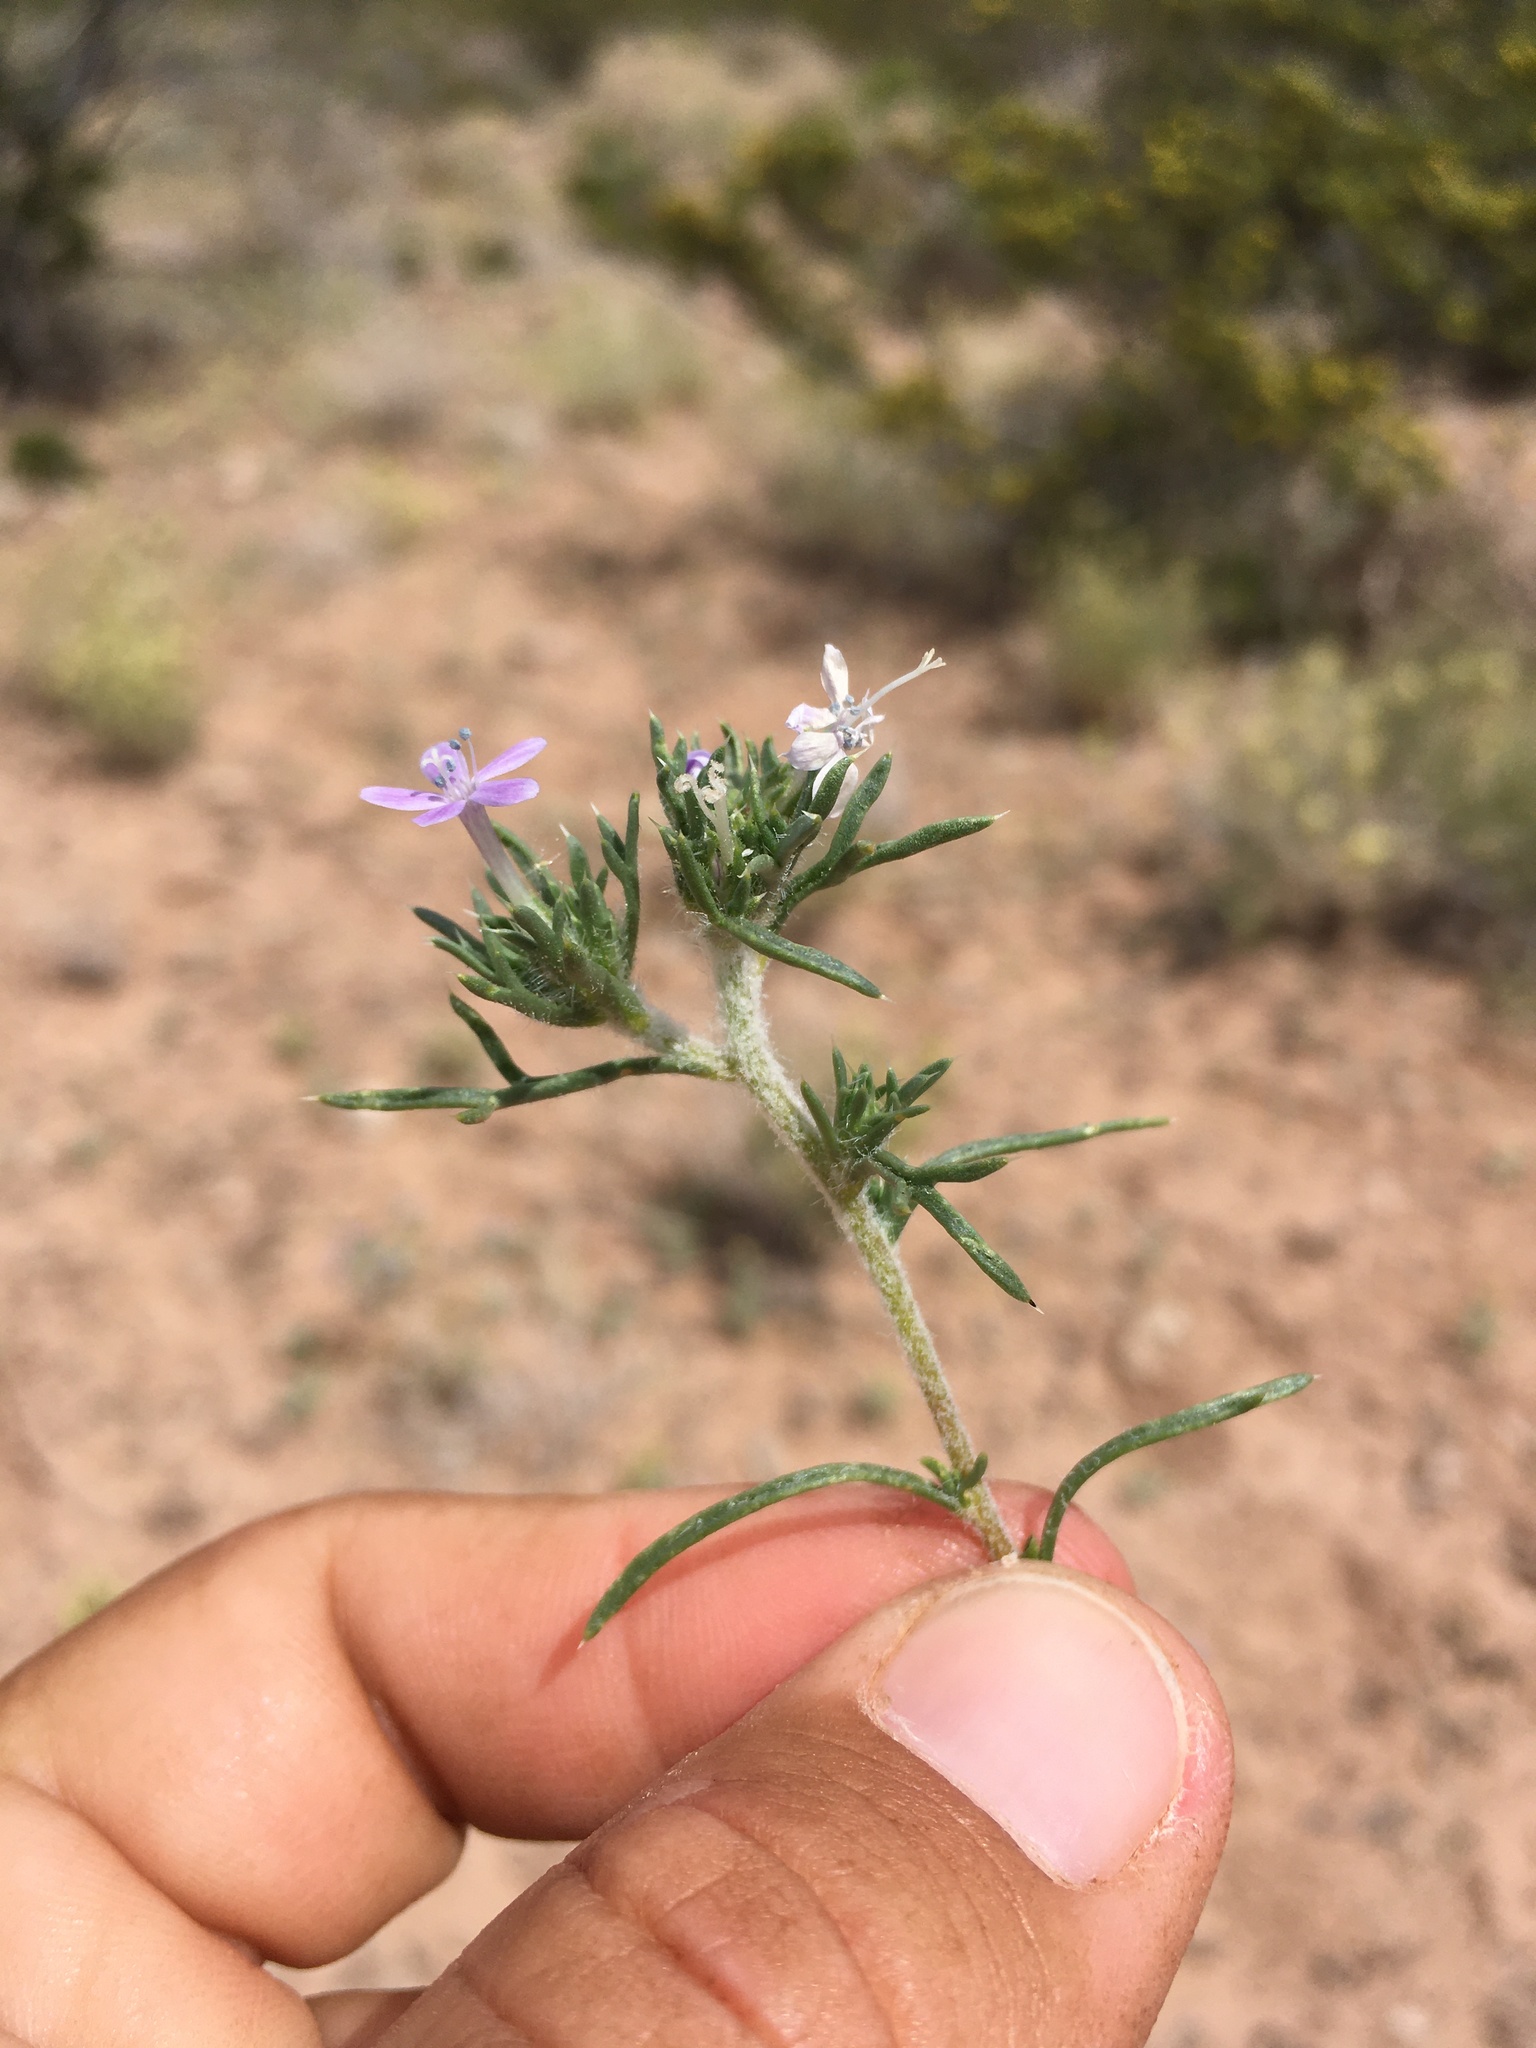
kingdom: Plantae
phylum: Tracheophyta
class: Magnoliopsida
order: Ericales
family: Polemoniaceae
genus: Ipomopsis
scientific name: Ipomopsis pumila
